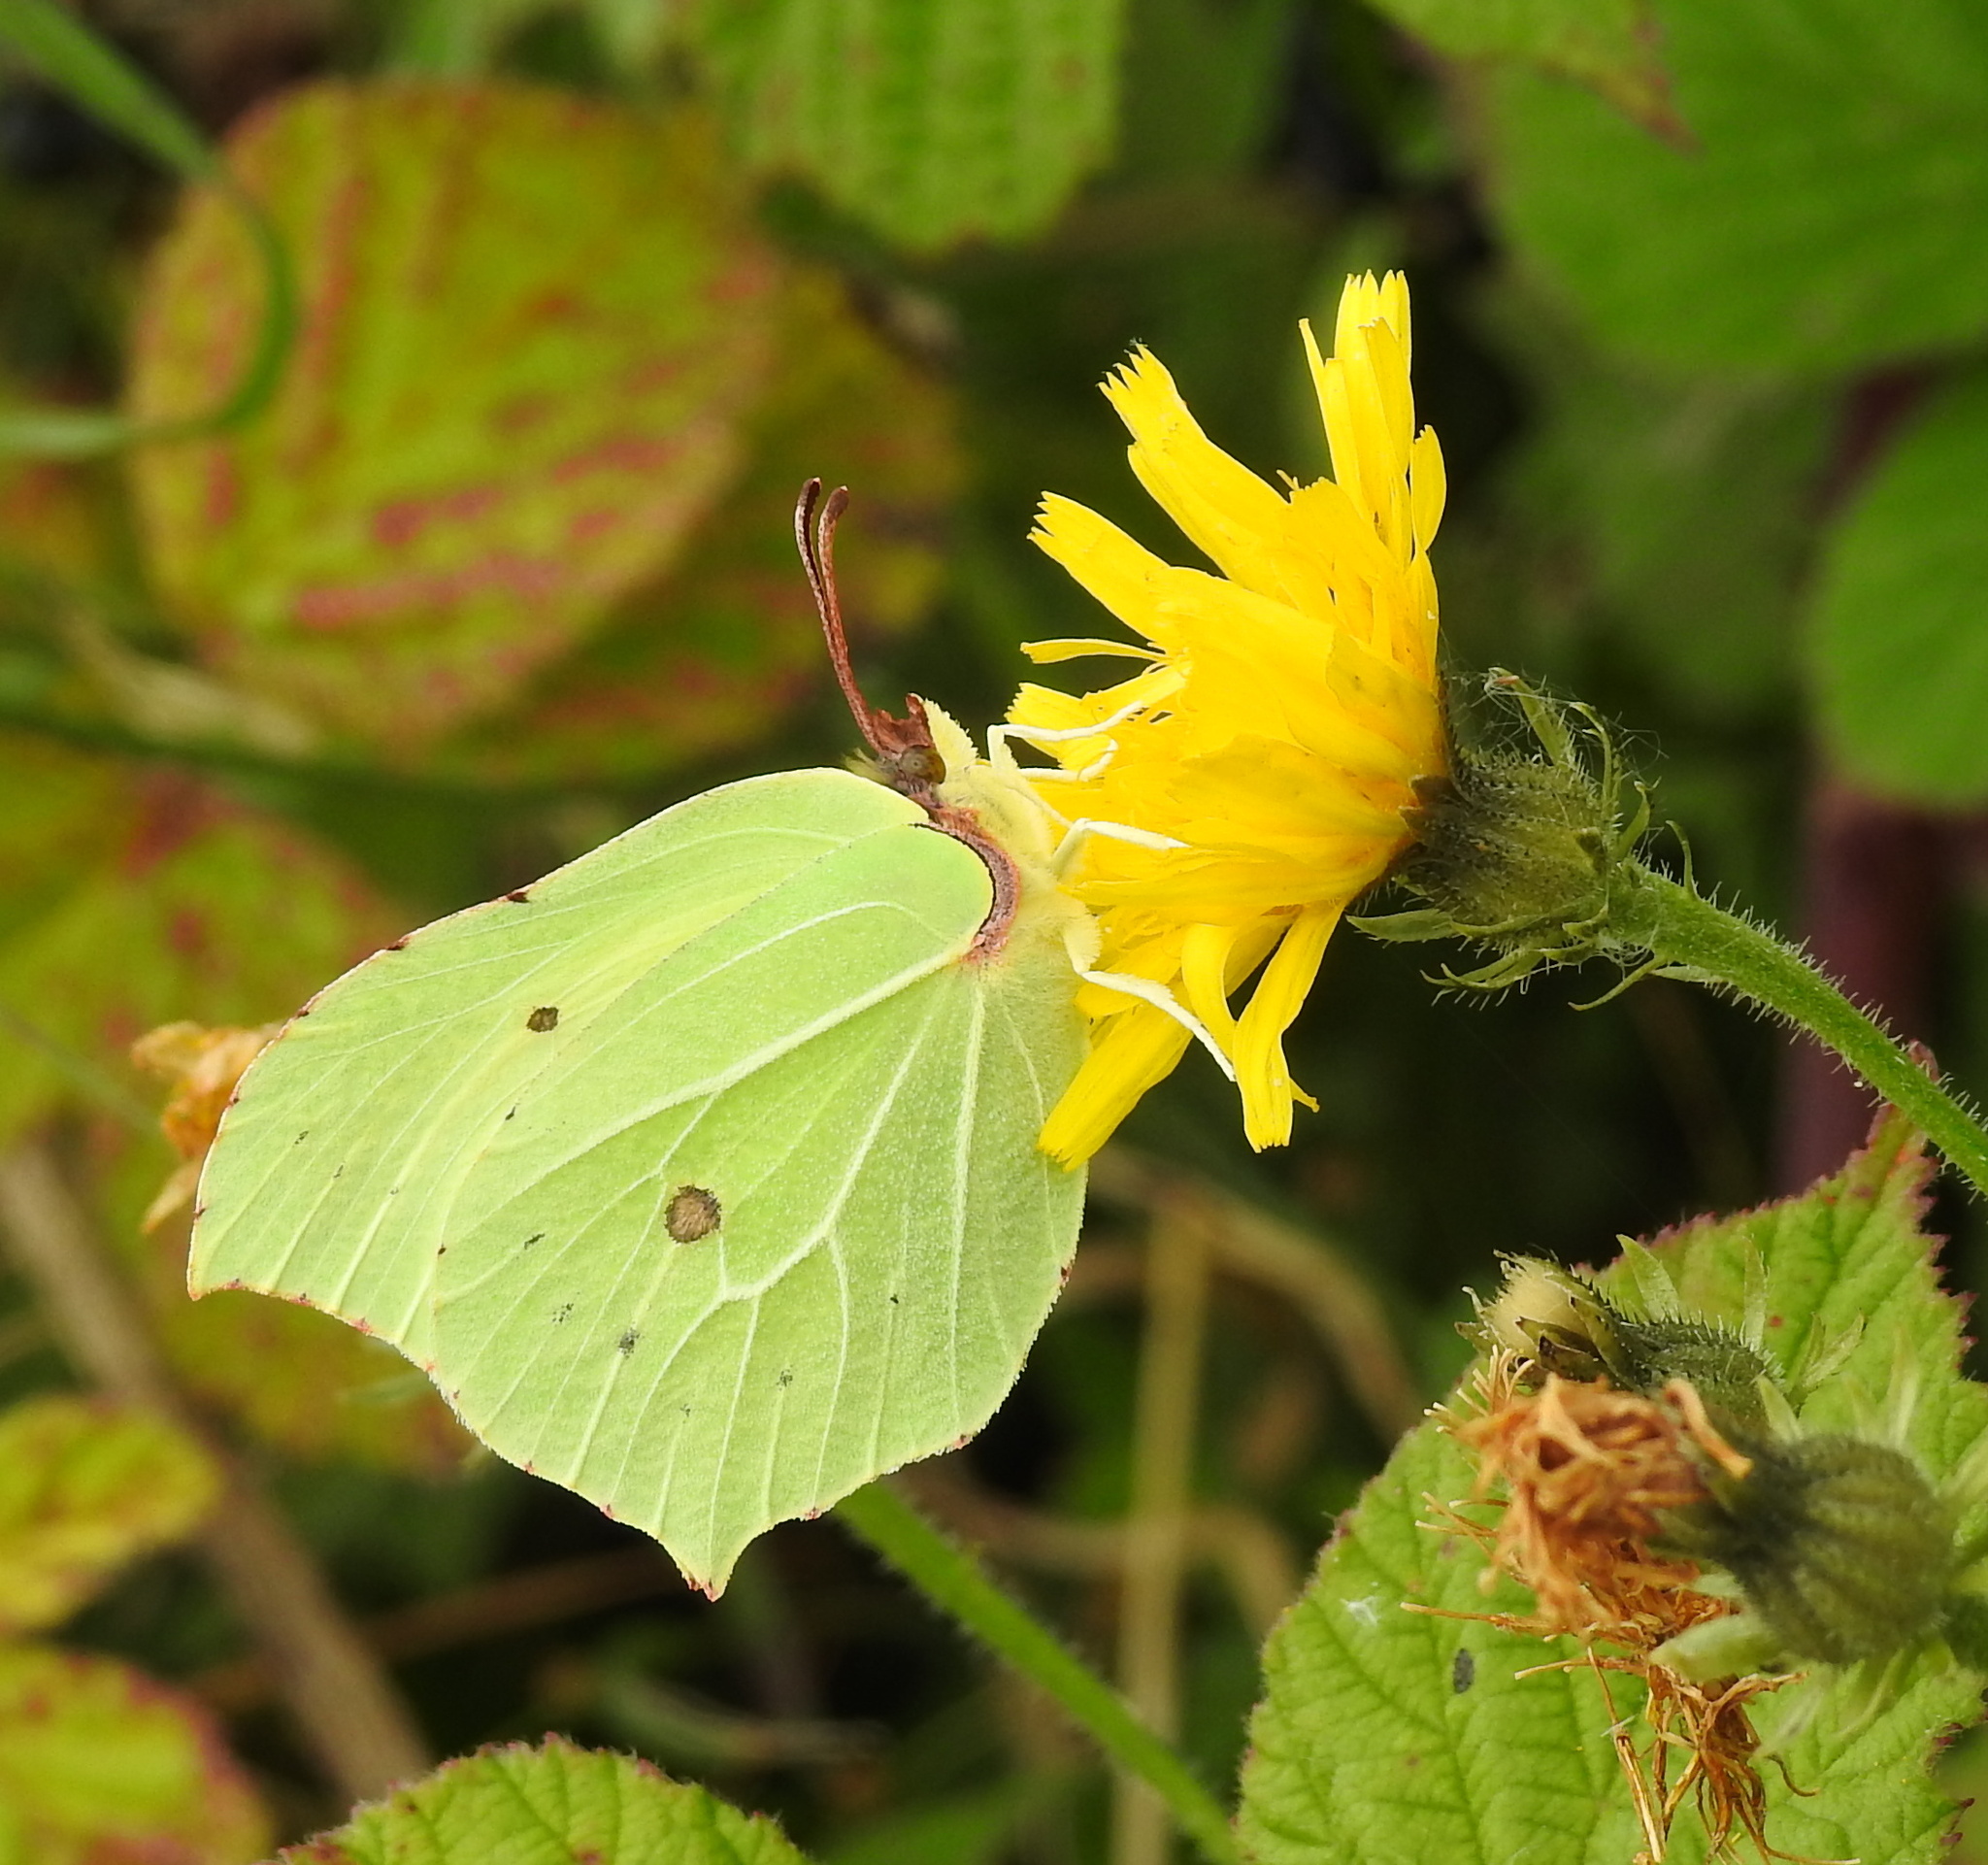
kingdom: Animalia
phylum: Arthropoda
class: Insecta
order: Lepidoptera
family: Pieridae
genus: Gonepteryx
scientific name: Gonepteryx rhamni
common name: Brimstone
